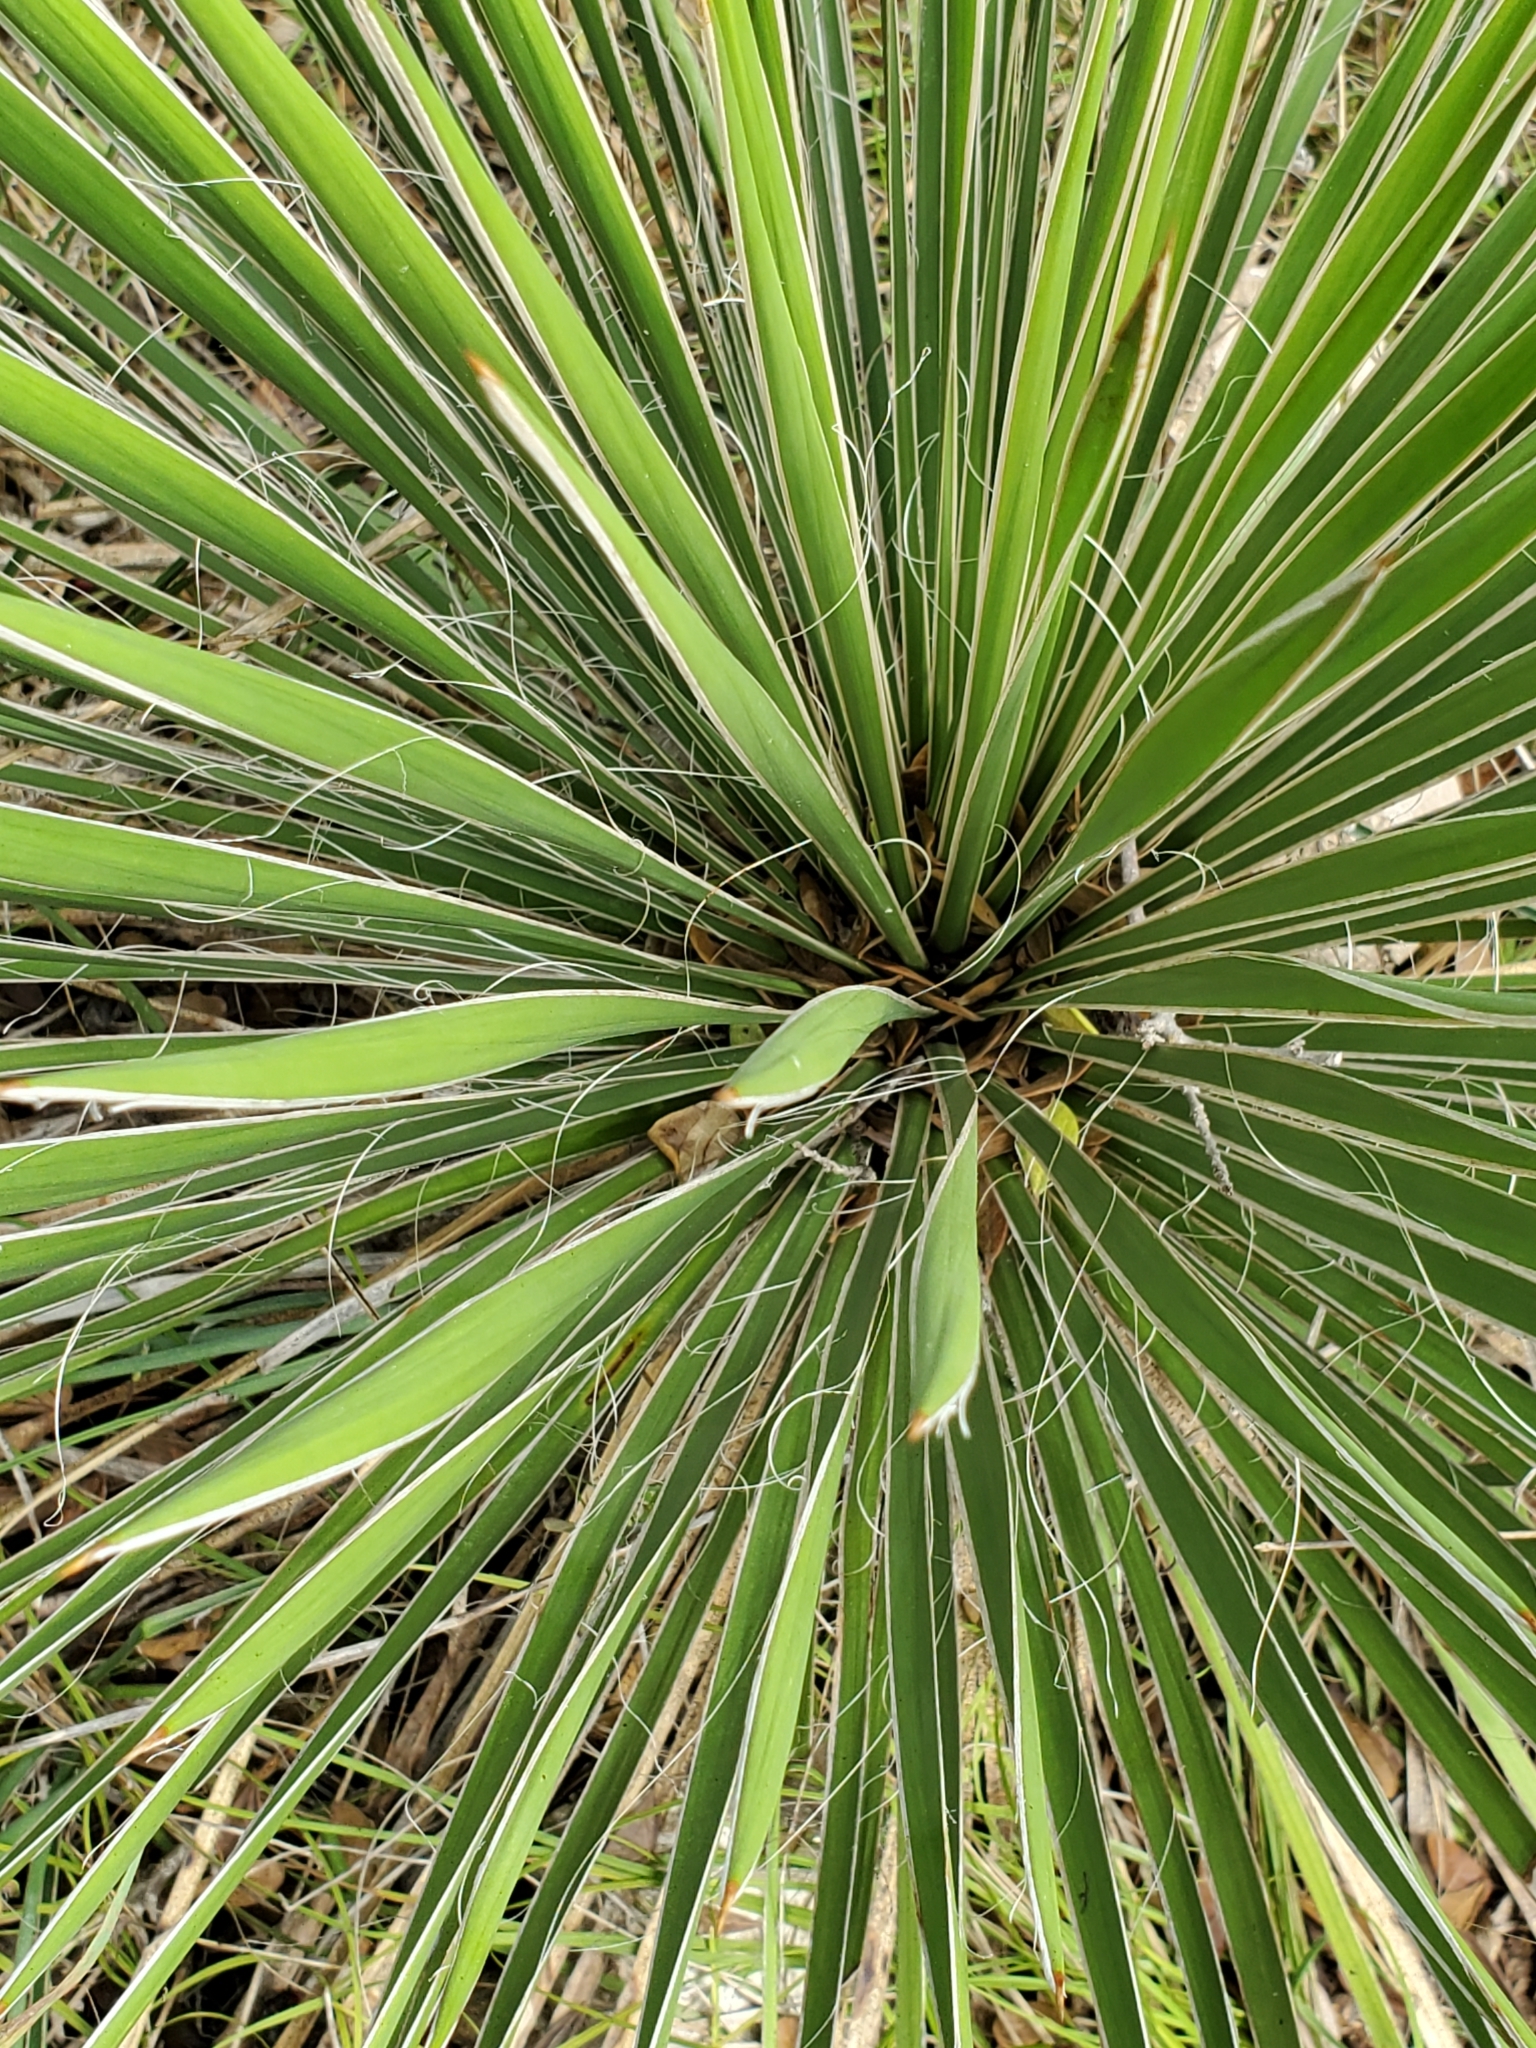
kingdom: Plantae
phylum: Tracheophyta
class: Liliopsida
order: Asparagales
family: Asparagaceae
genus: Yucca
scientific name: Yucca constricta
